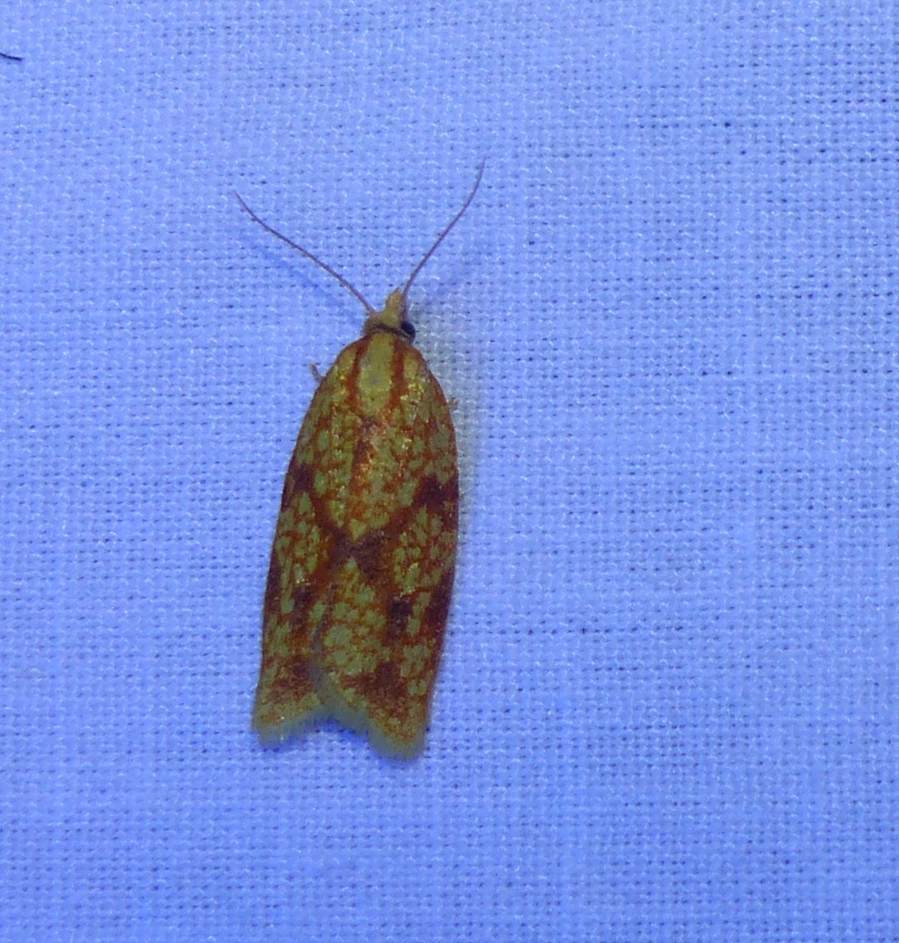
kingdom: Animalia
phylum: Arthropoda
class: Insecta
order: Lepidoptera
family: Tortricidae
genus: Sparganothis
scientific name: Sparganothis sulfureana
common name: Sparganothis fruitworm moth
